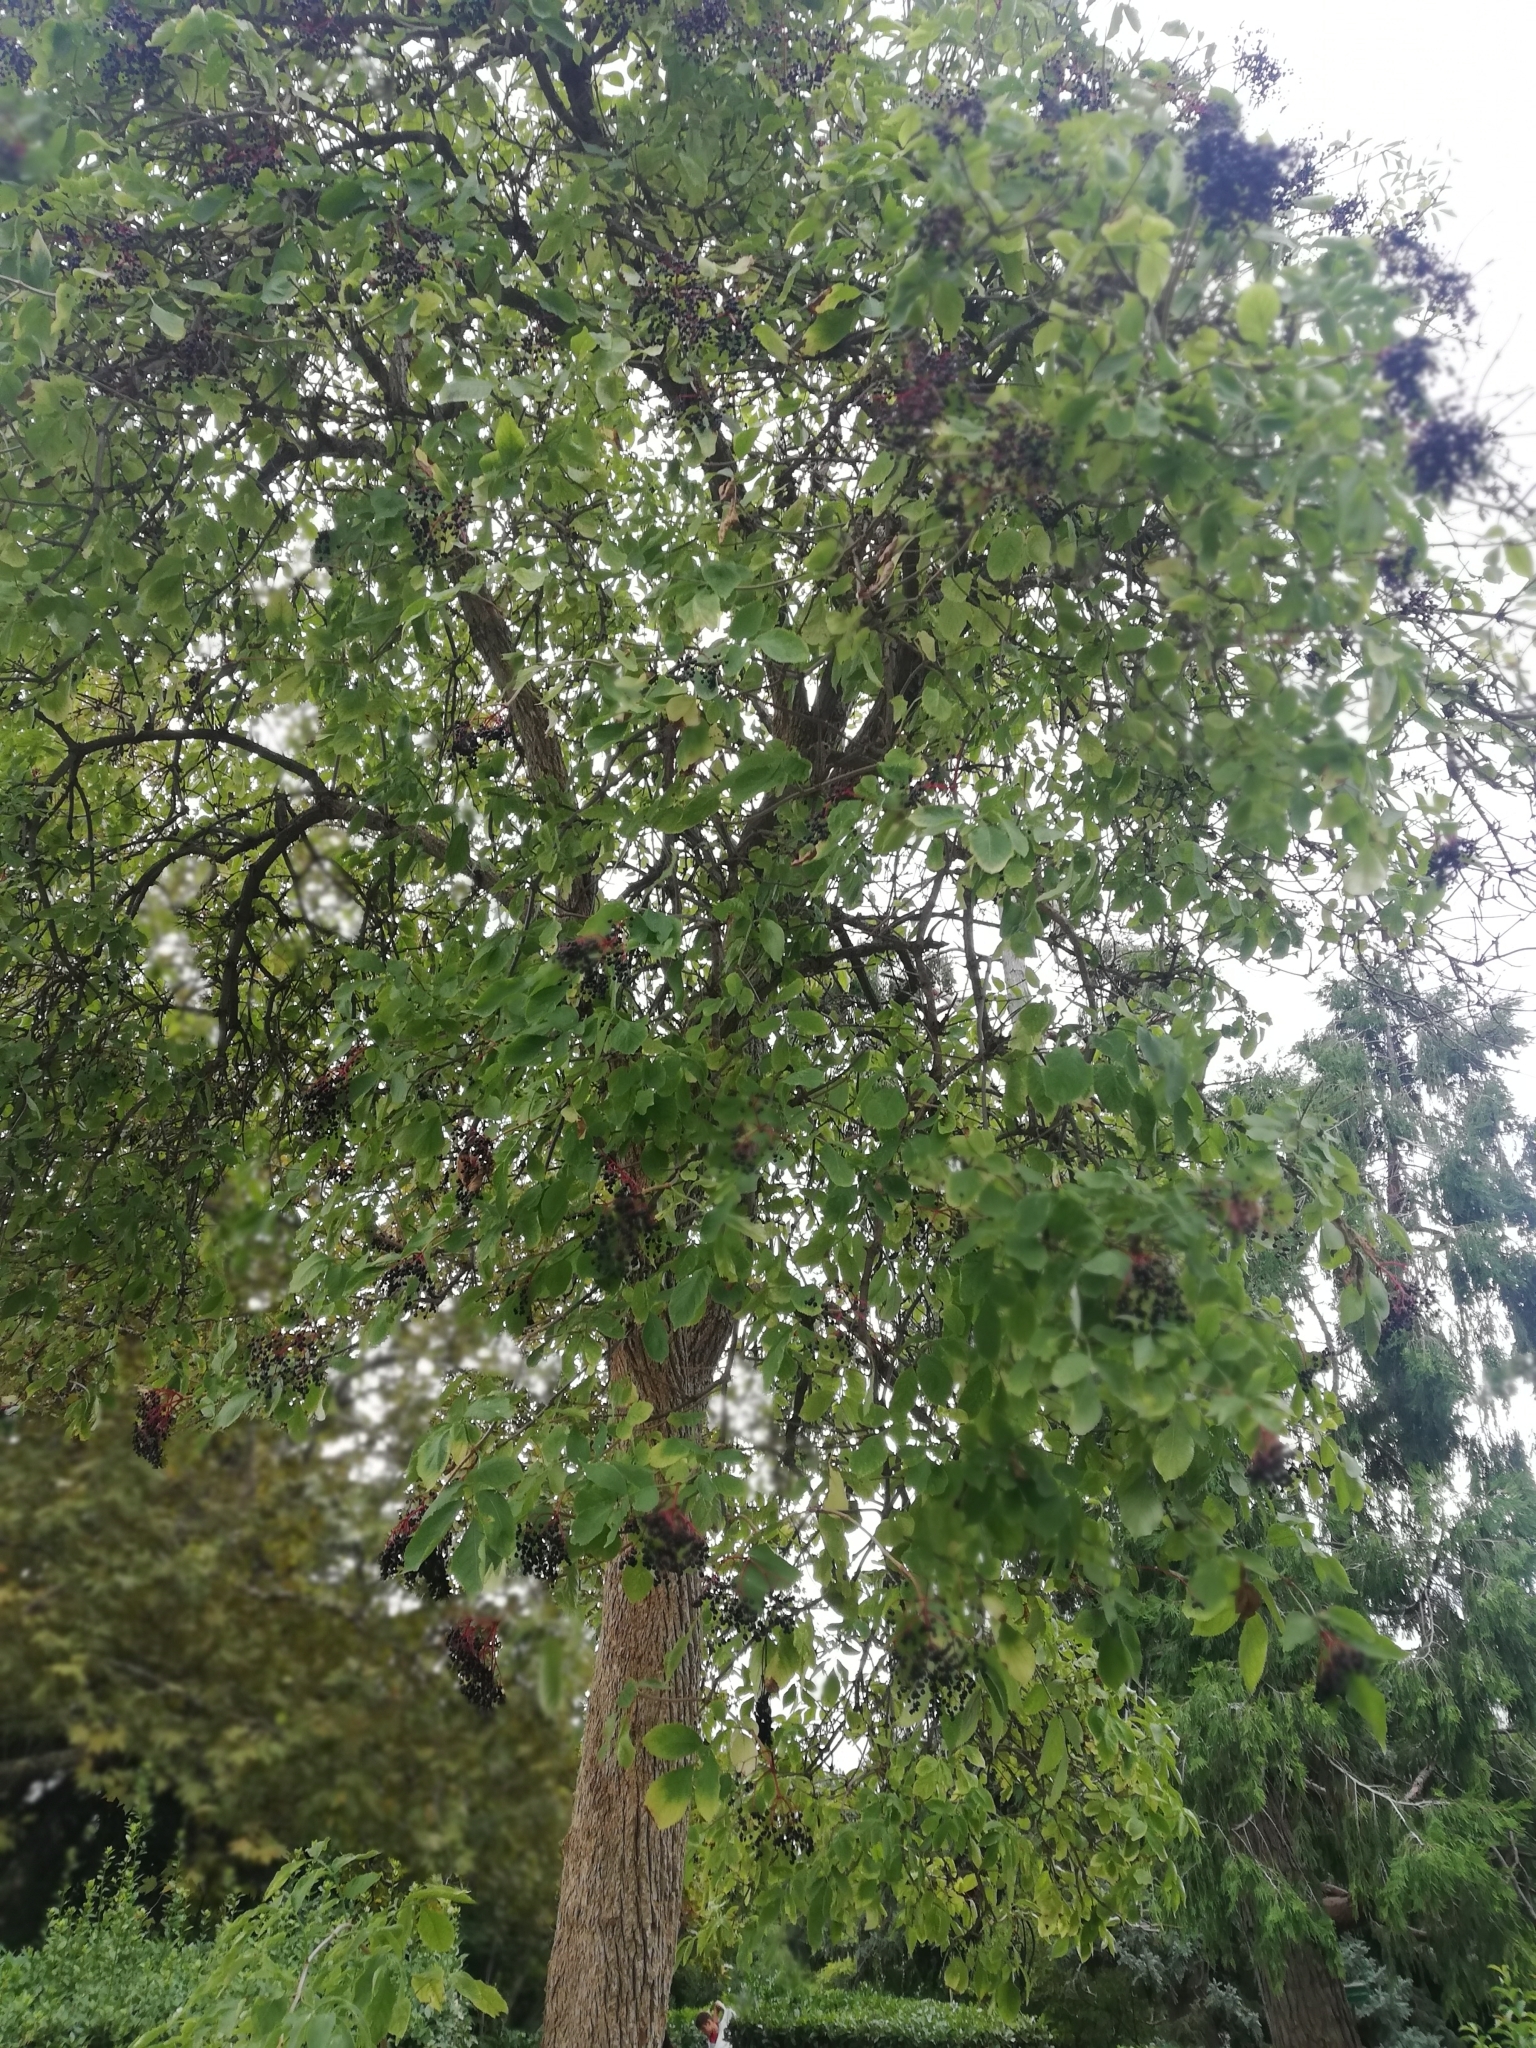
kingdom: Plantae
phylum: Tracheophyta
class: Magnoliopsida
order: Dipsacales
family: Viburnaceae
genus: Sambucus
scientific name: Sambucus nigra
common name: Elder
